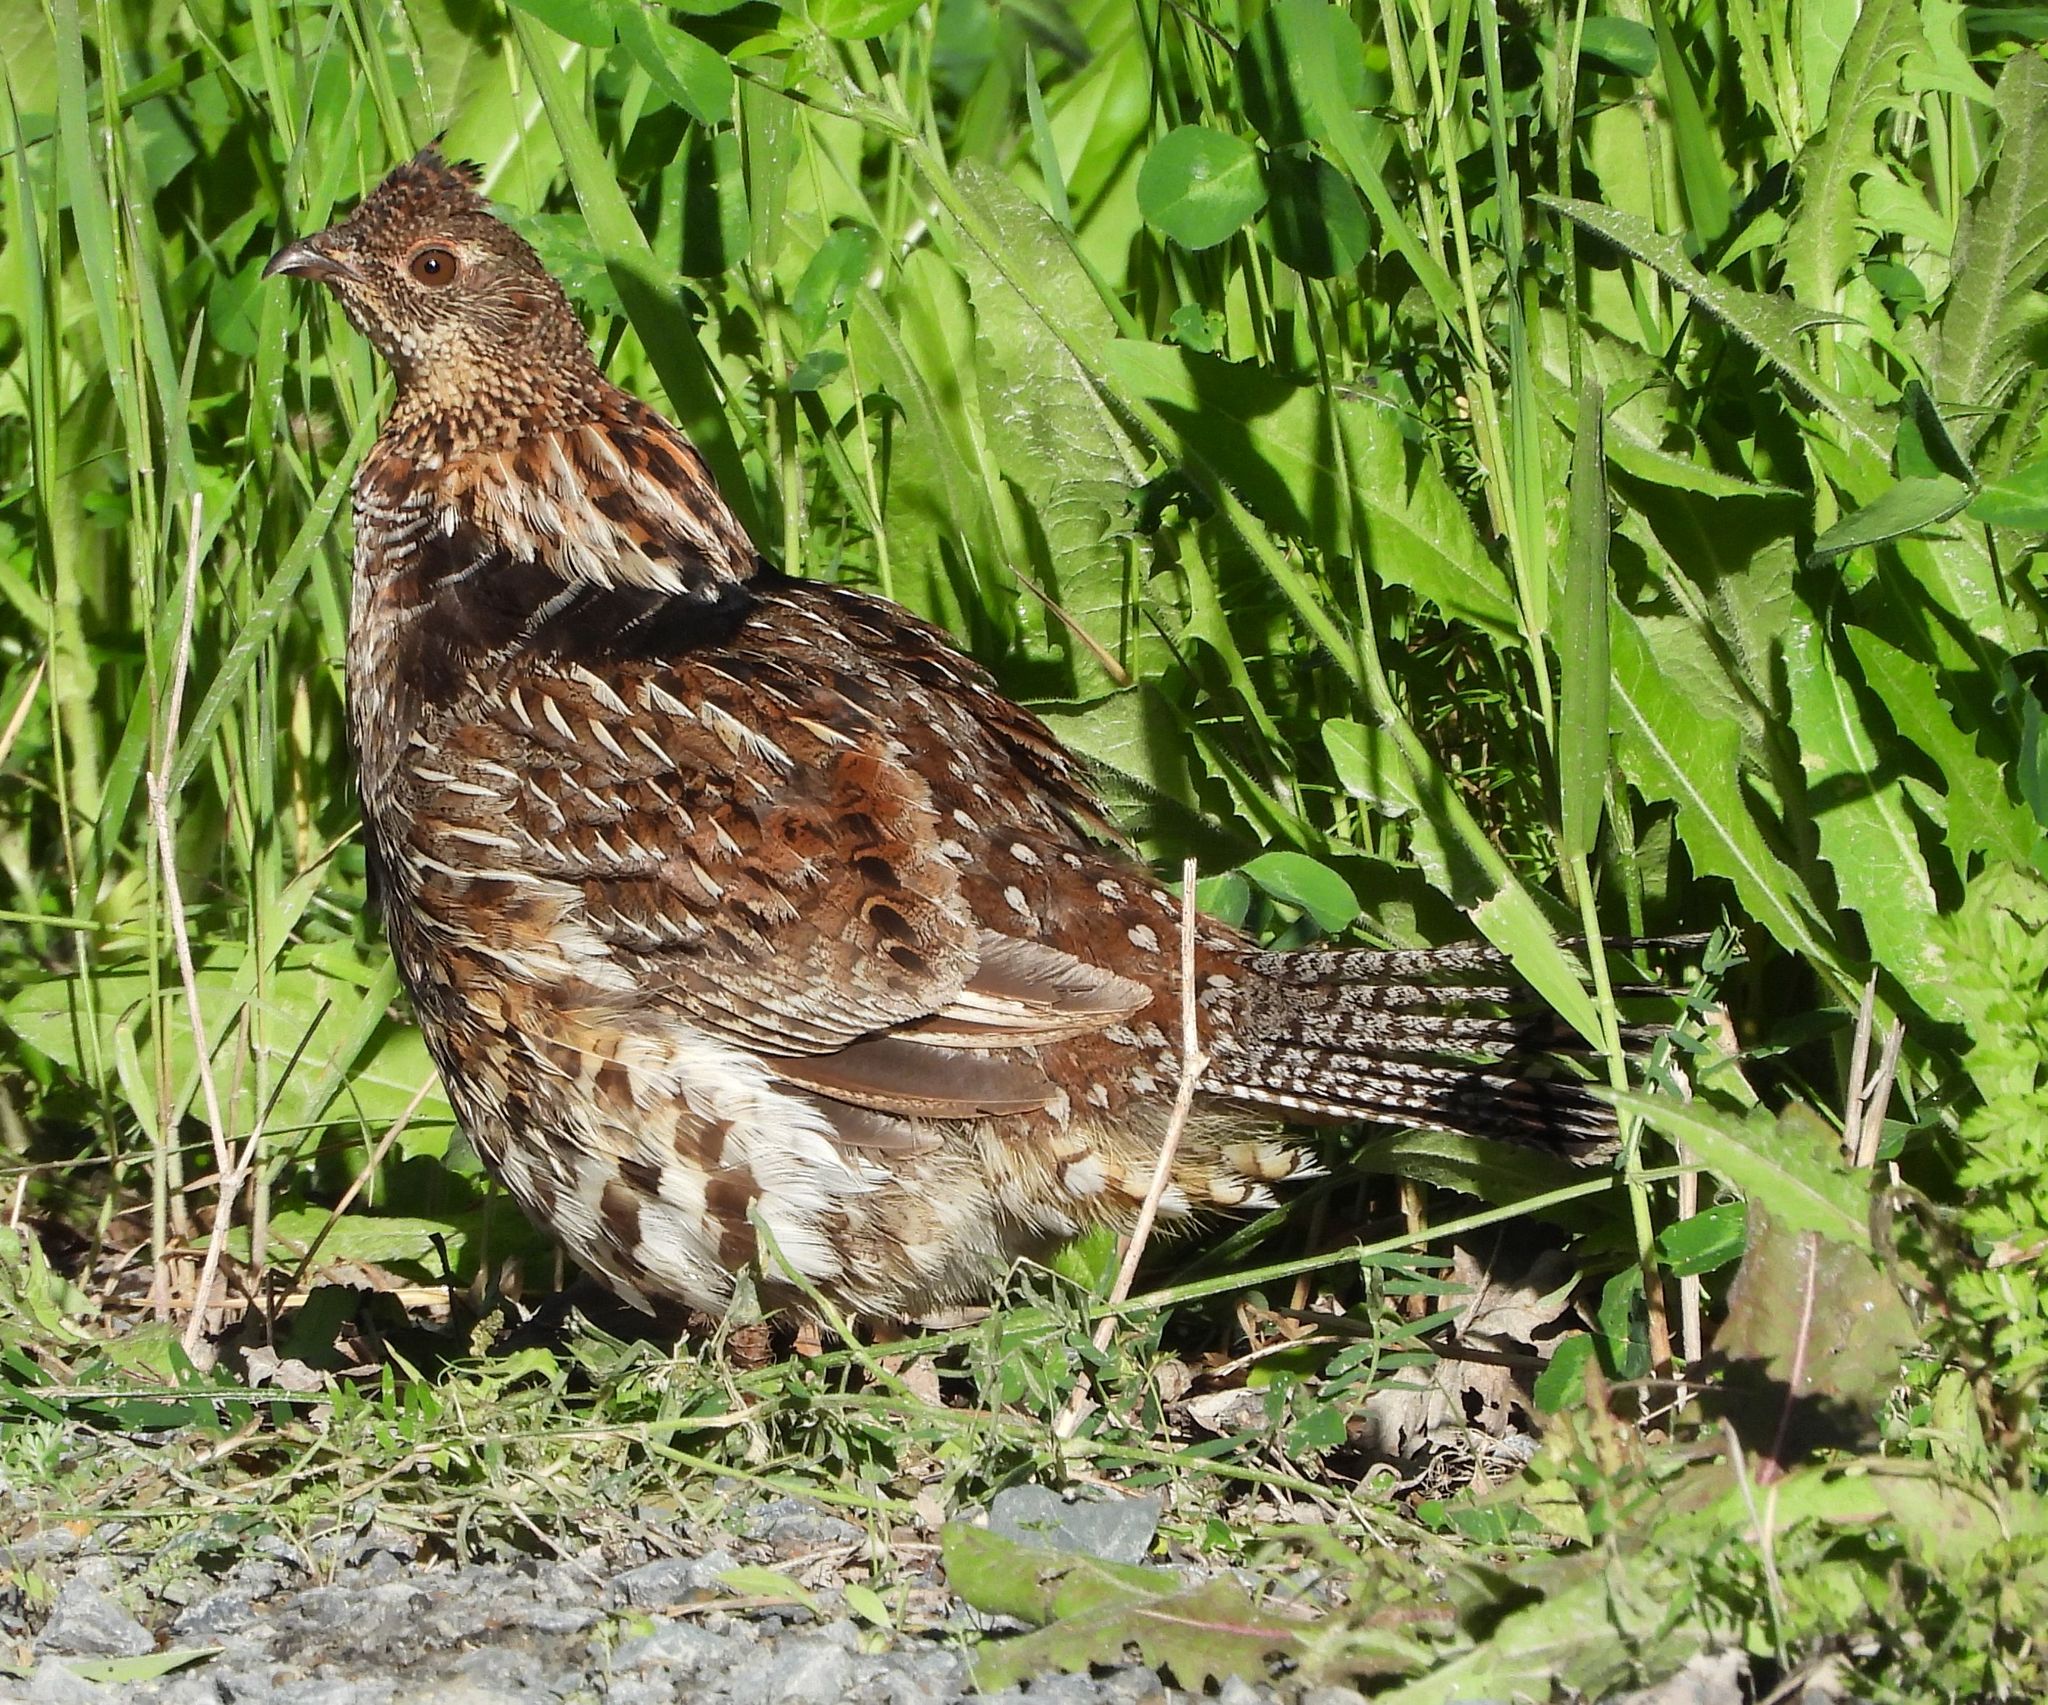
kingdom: Animalia
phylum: Chordata
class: Aves
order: Galliformes
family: Phasianidae
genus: Bonasa
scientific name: Bonasa umbellus
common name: Ruffed grouse
